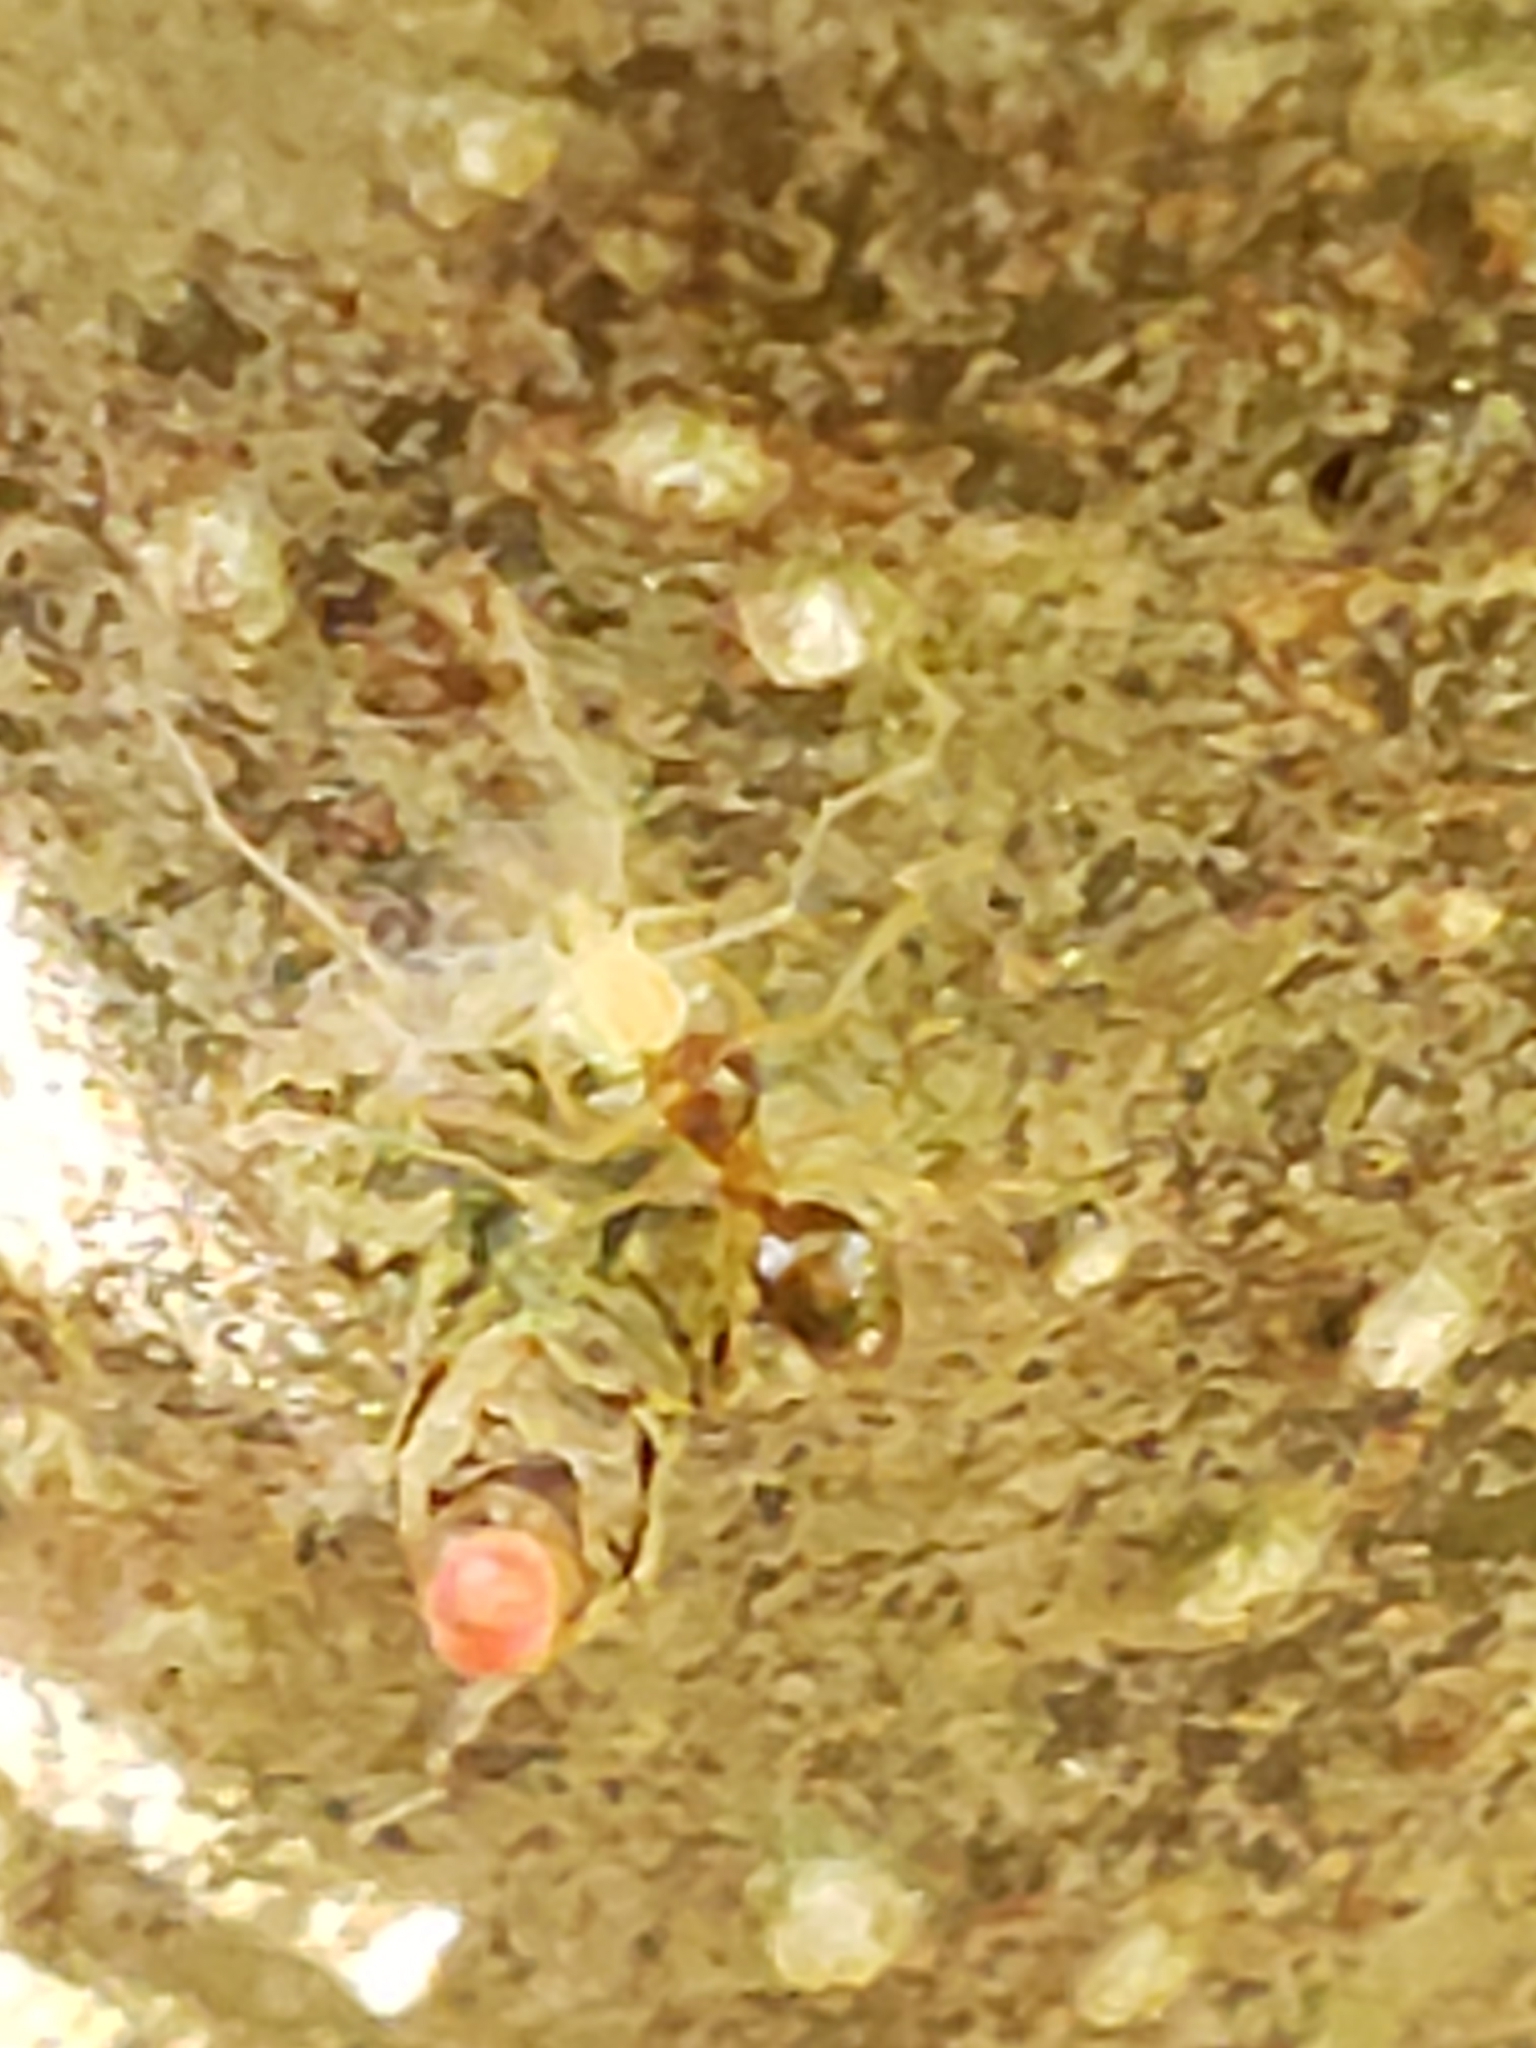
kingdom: Animalia
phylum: Arthropoda
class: Insecta
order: Hymenoptera
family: Formicidae
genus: Prenolepis
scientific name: Prenolepis imparis
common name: Small honey ant
